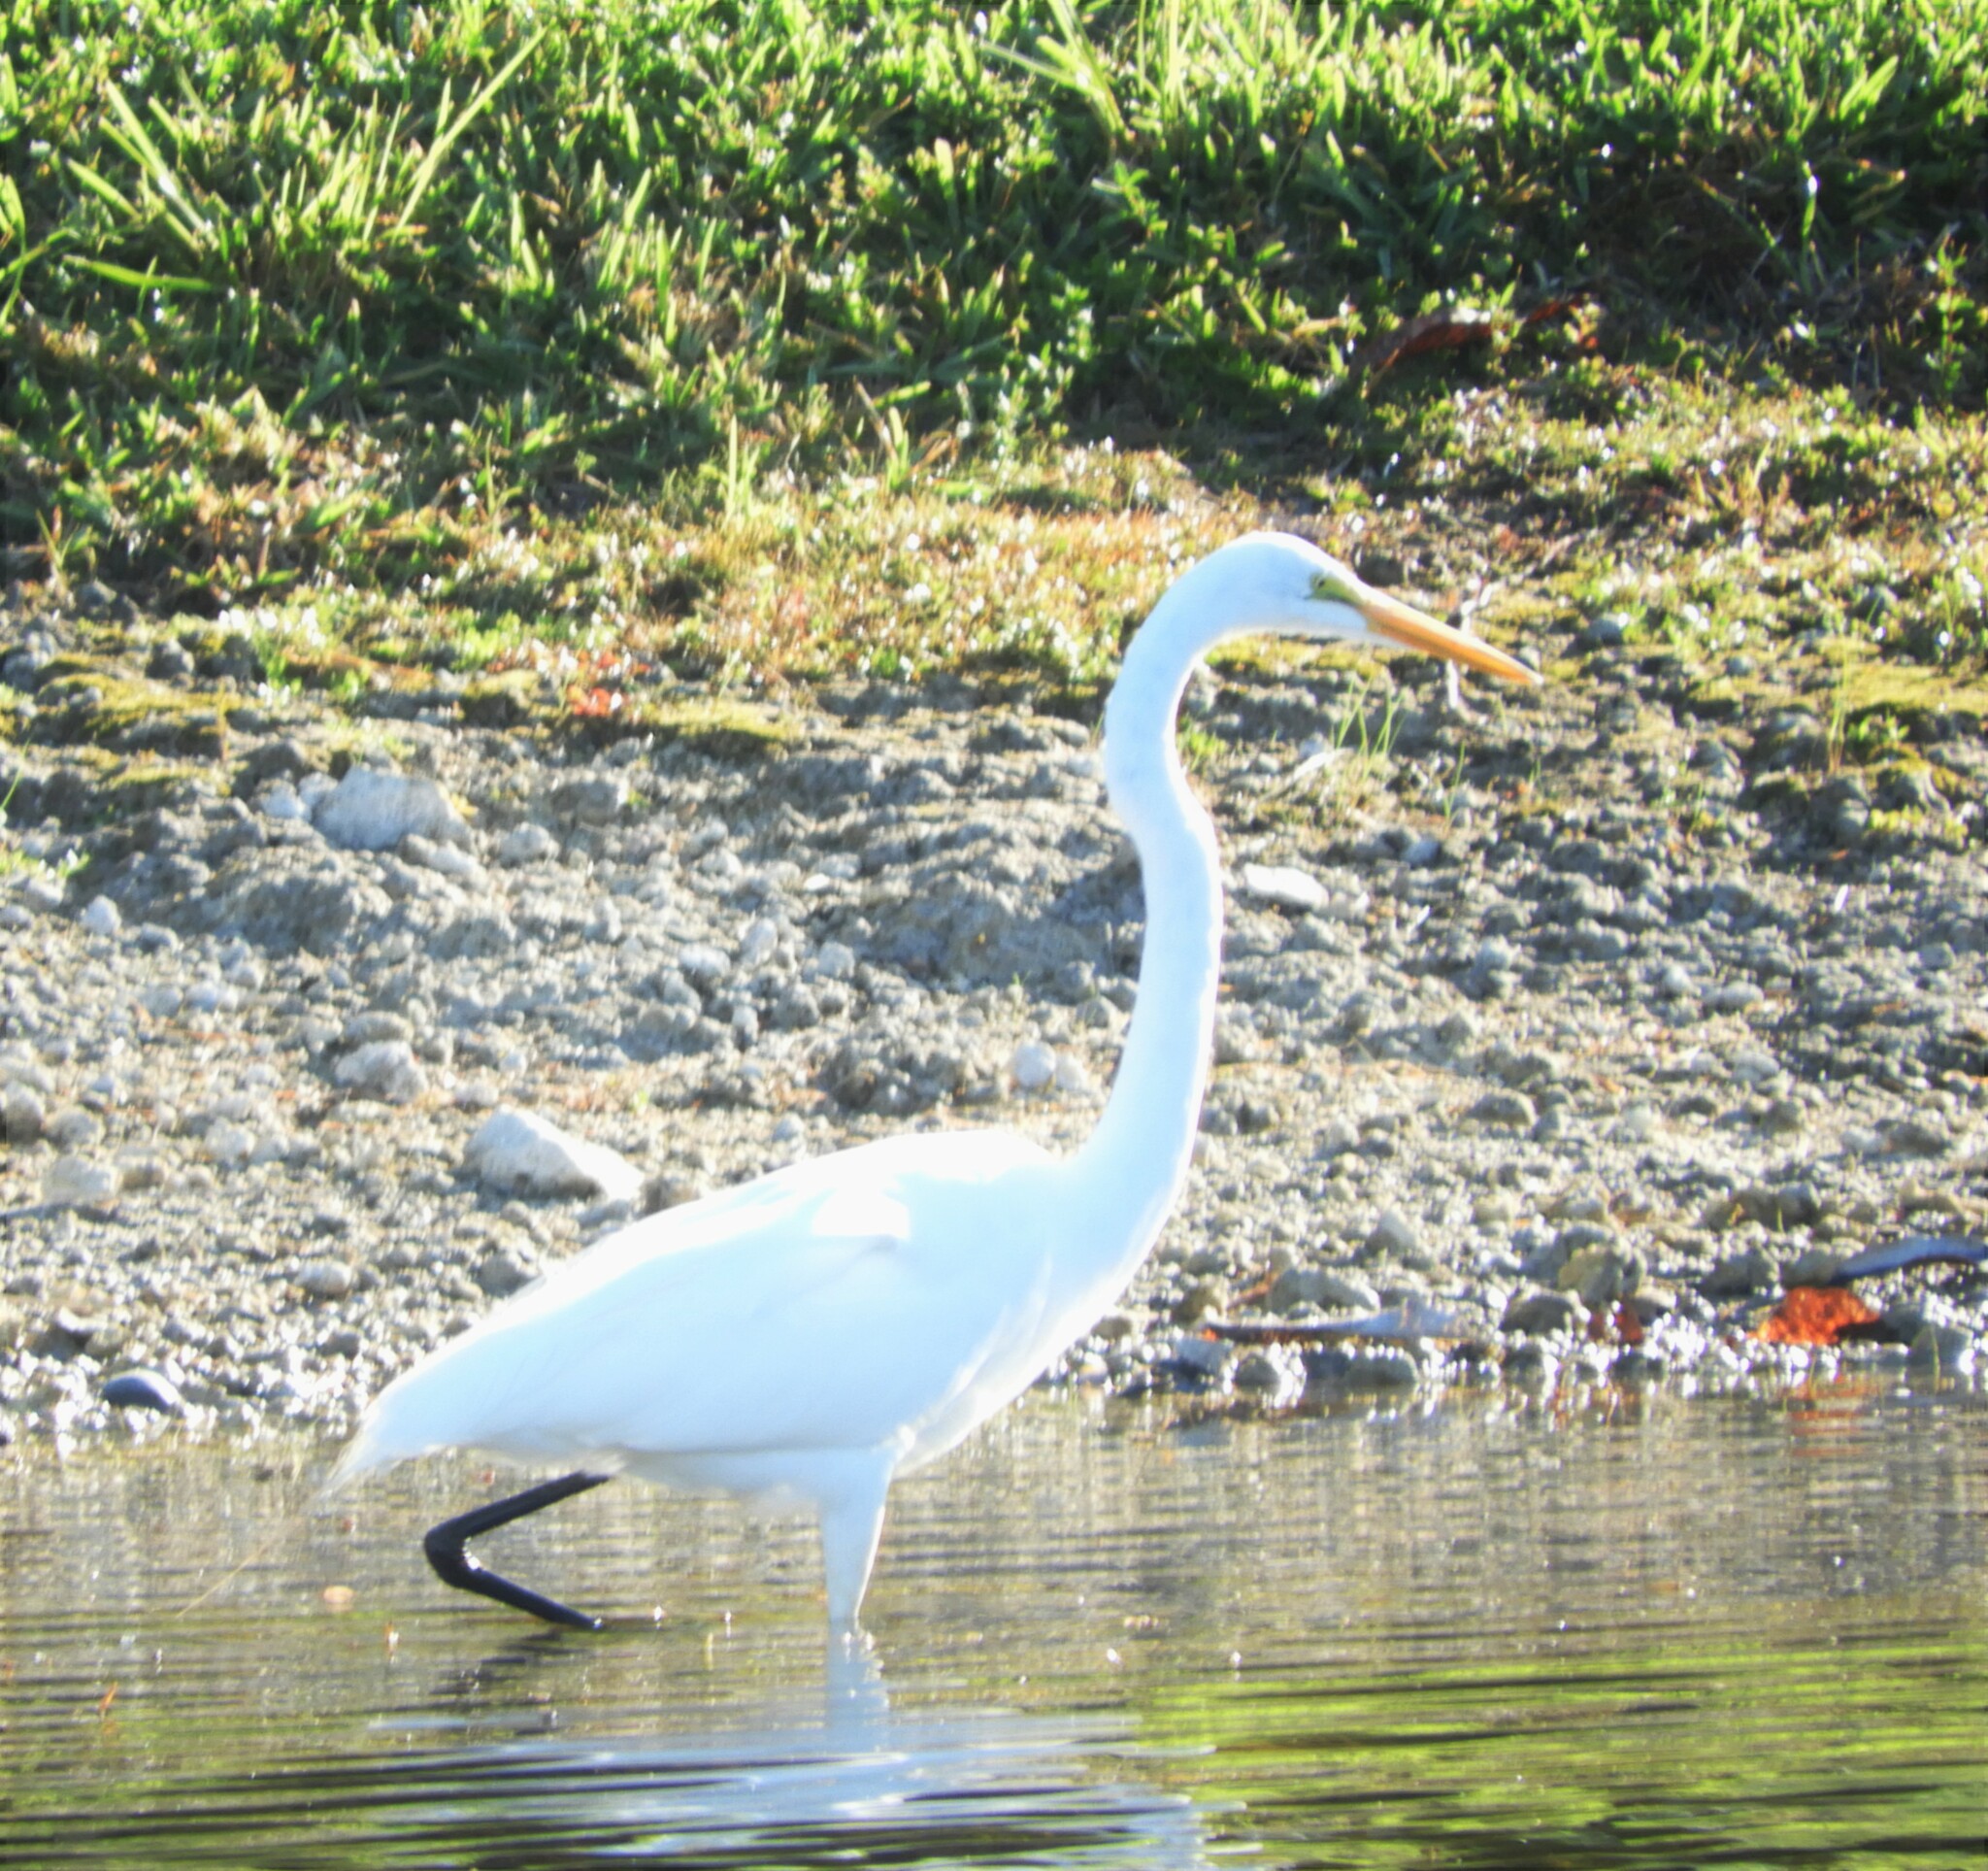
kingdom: Animalia
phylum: Chordata
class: Aves
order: Pelecaniformes
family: Ardeidae
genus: Ardea
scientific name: Ardea alba
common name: Great egret
